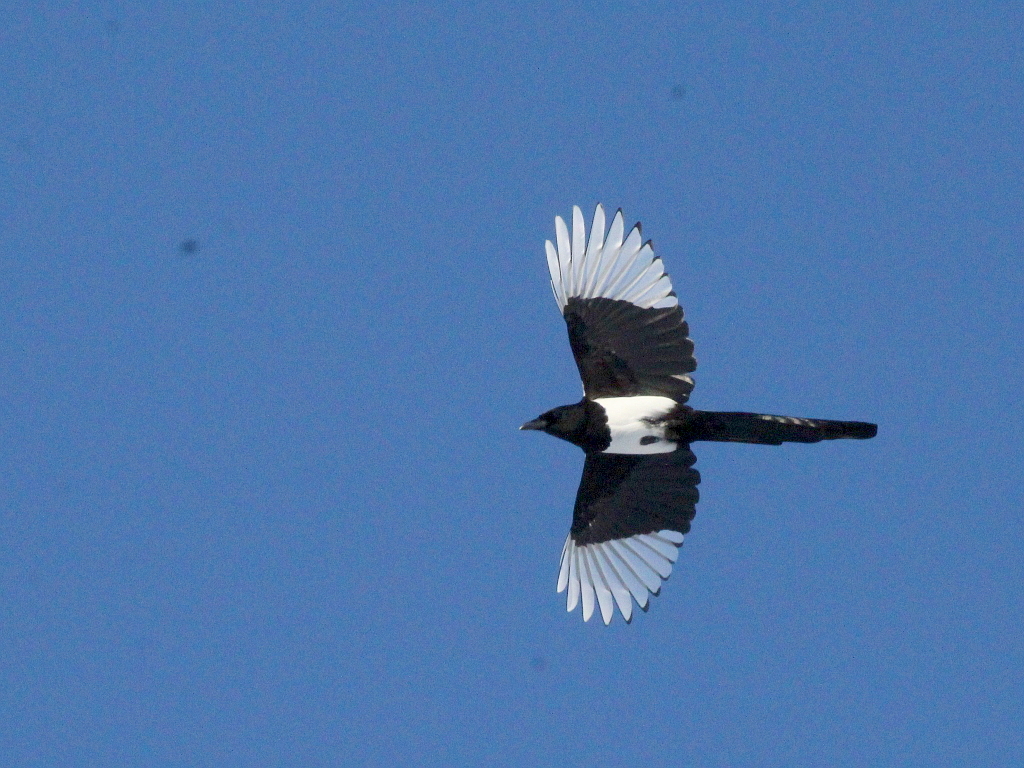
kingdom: Animalia
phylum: Chordata
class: Aves
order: Passeriformes
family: Corvidae
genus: Pica
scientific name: Pica pica
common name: Eurasian magpie
